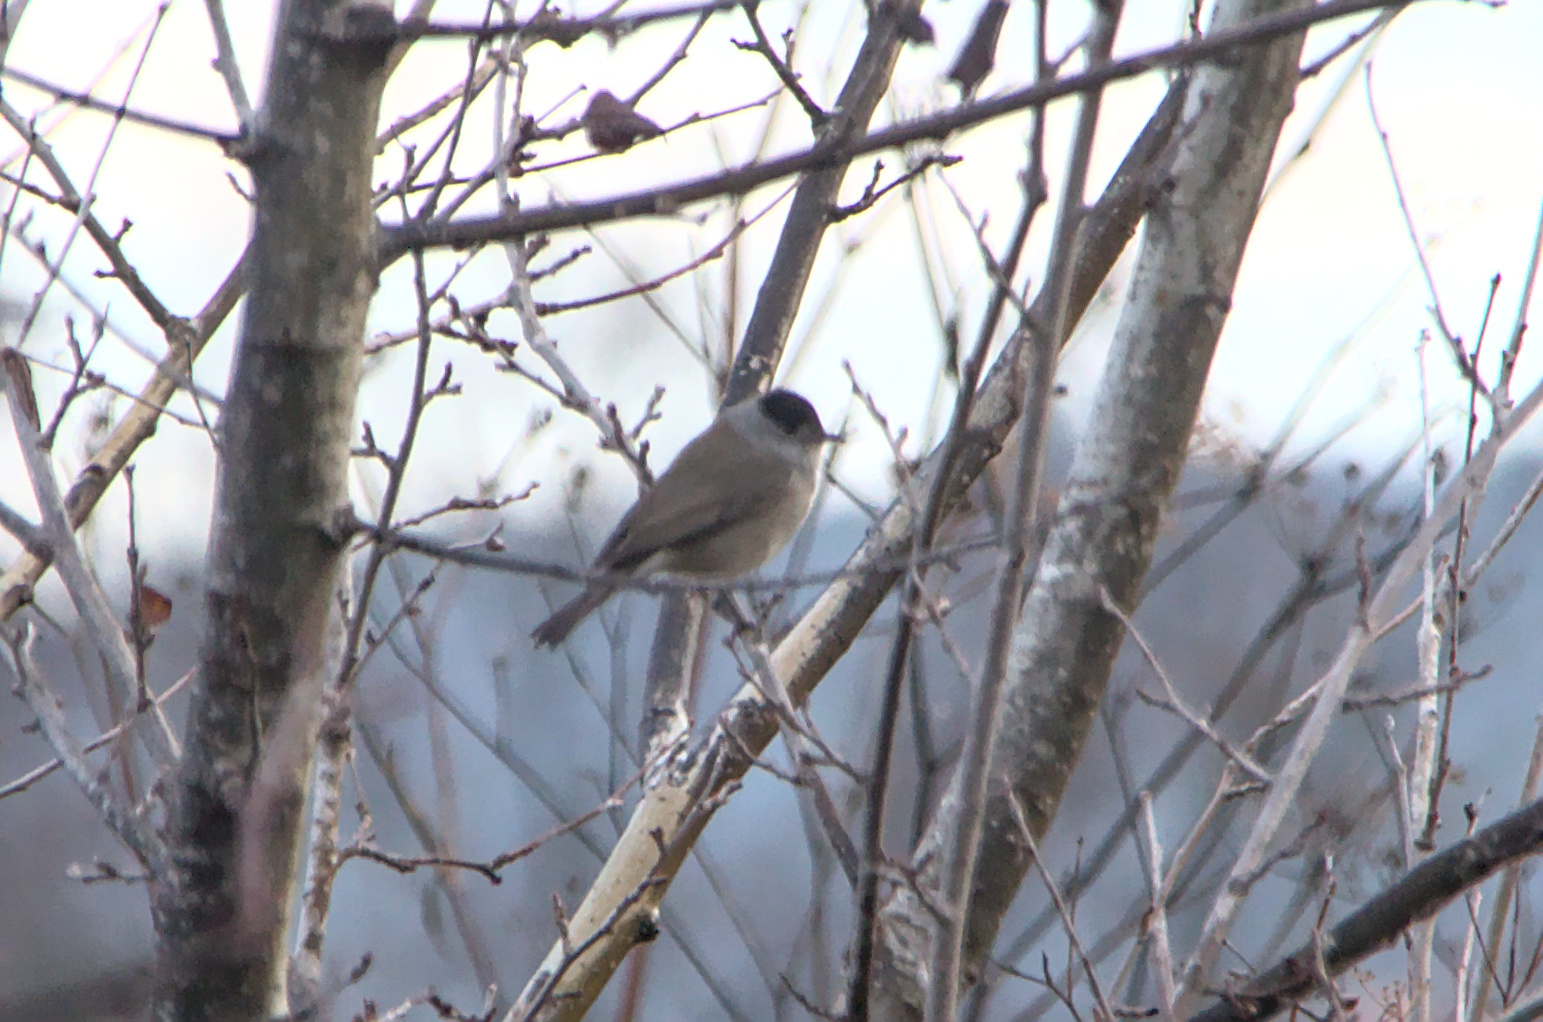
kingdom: Animalia
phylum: Chordata
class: Aves
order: Passeriformes
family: Sylviidae
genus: Sylvia
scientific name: Sylvia atricapilla
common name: Eurasian blackcap
